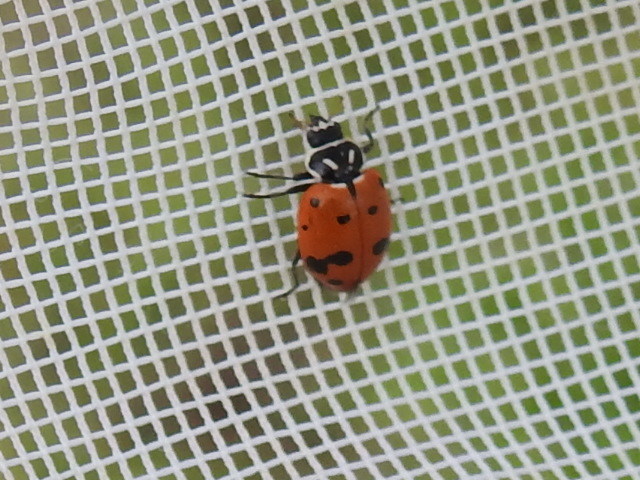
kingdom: Animalia
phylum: Arthropoda
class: Insecta
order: Coleoptera
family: Coccinellidae
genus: Hippodamia
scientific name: Hippodamia convergens
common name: Convergent lady beetle
